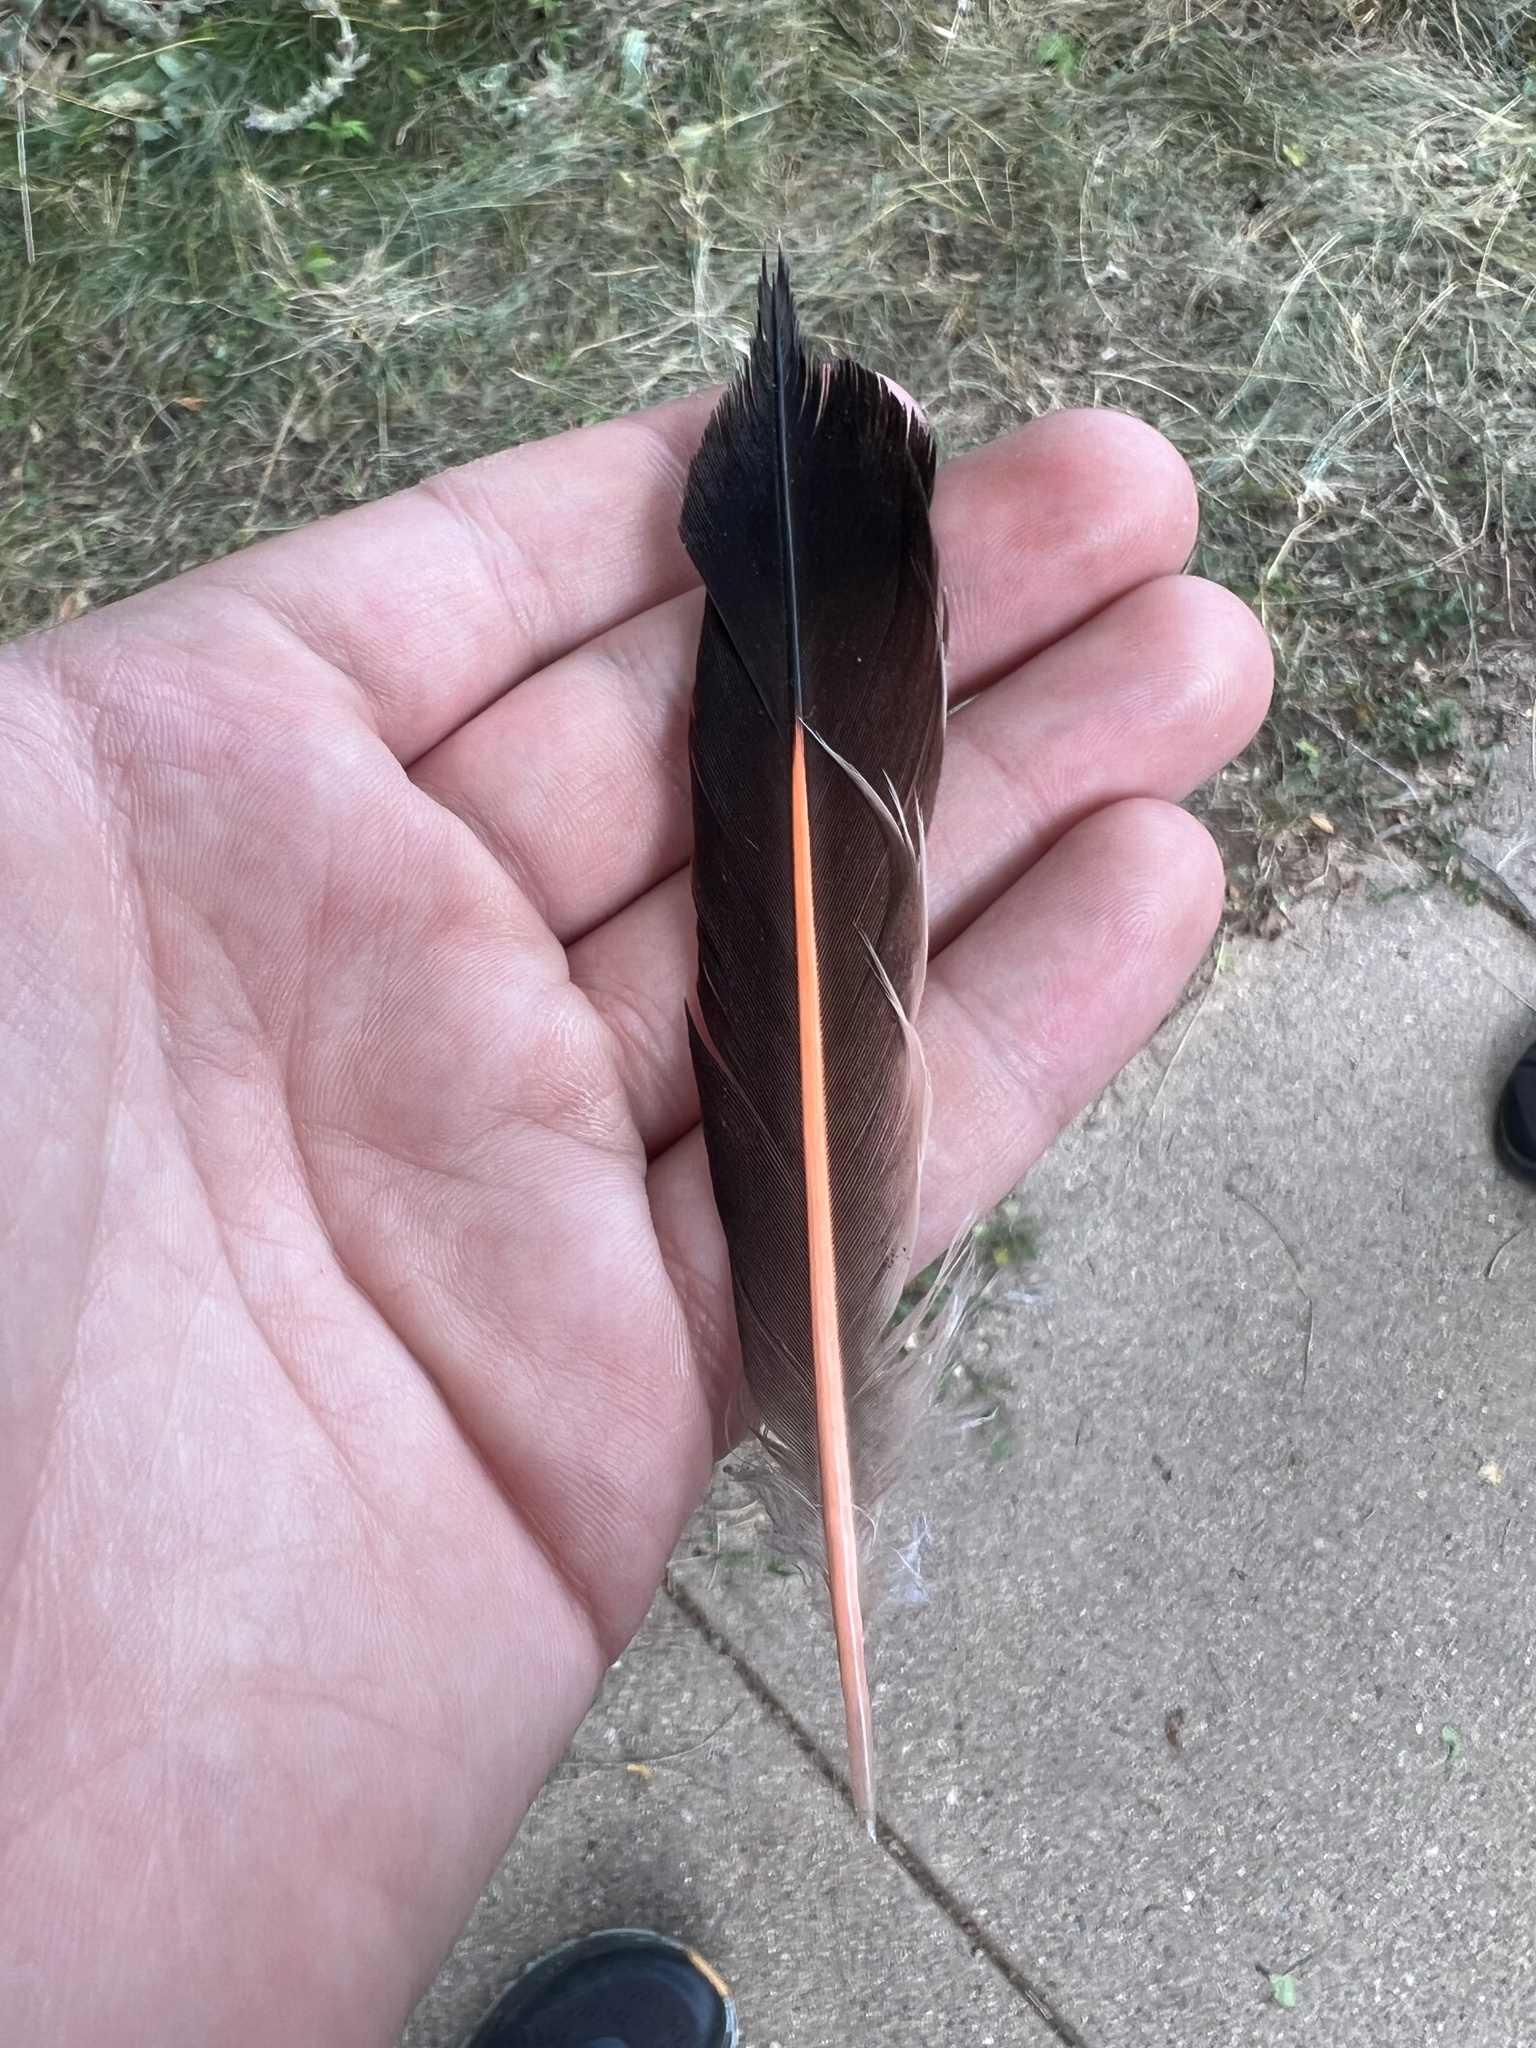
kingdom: Animalia
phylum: Chordata
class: Aves
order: Piciformes
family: Picidae
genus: Colaptes
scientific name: Colaptes auratus
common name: Northern flicker
